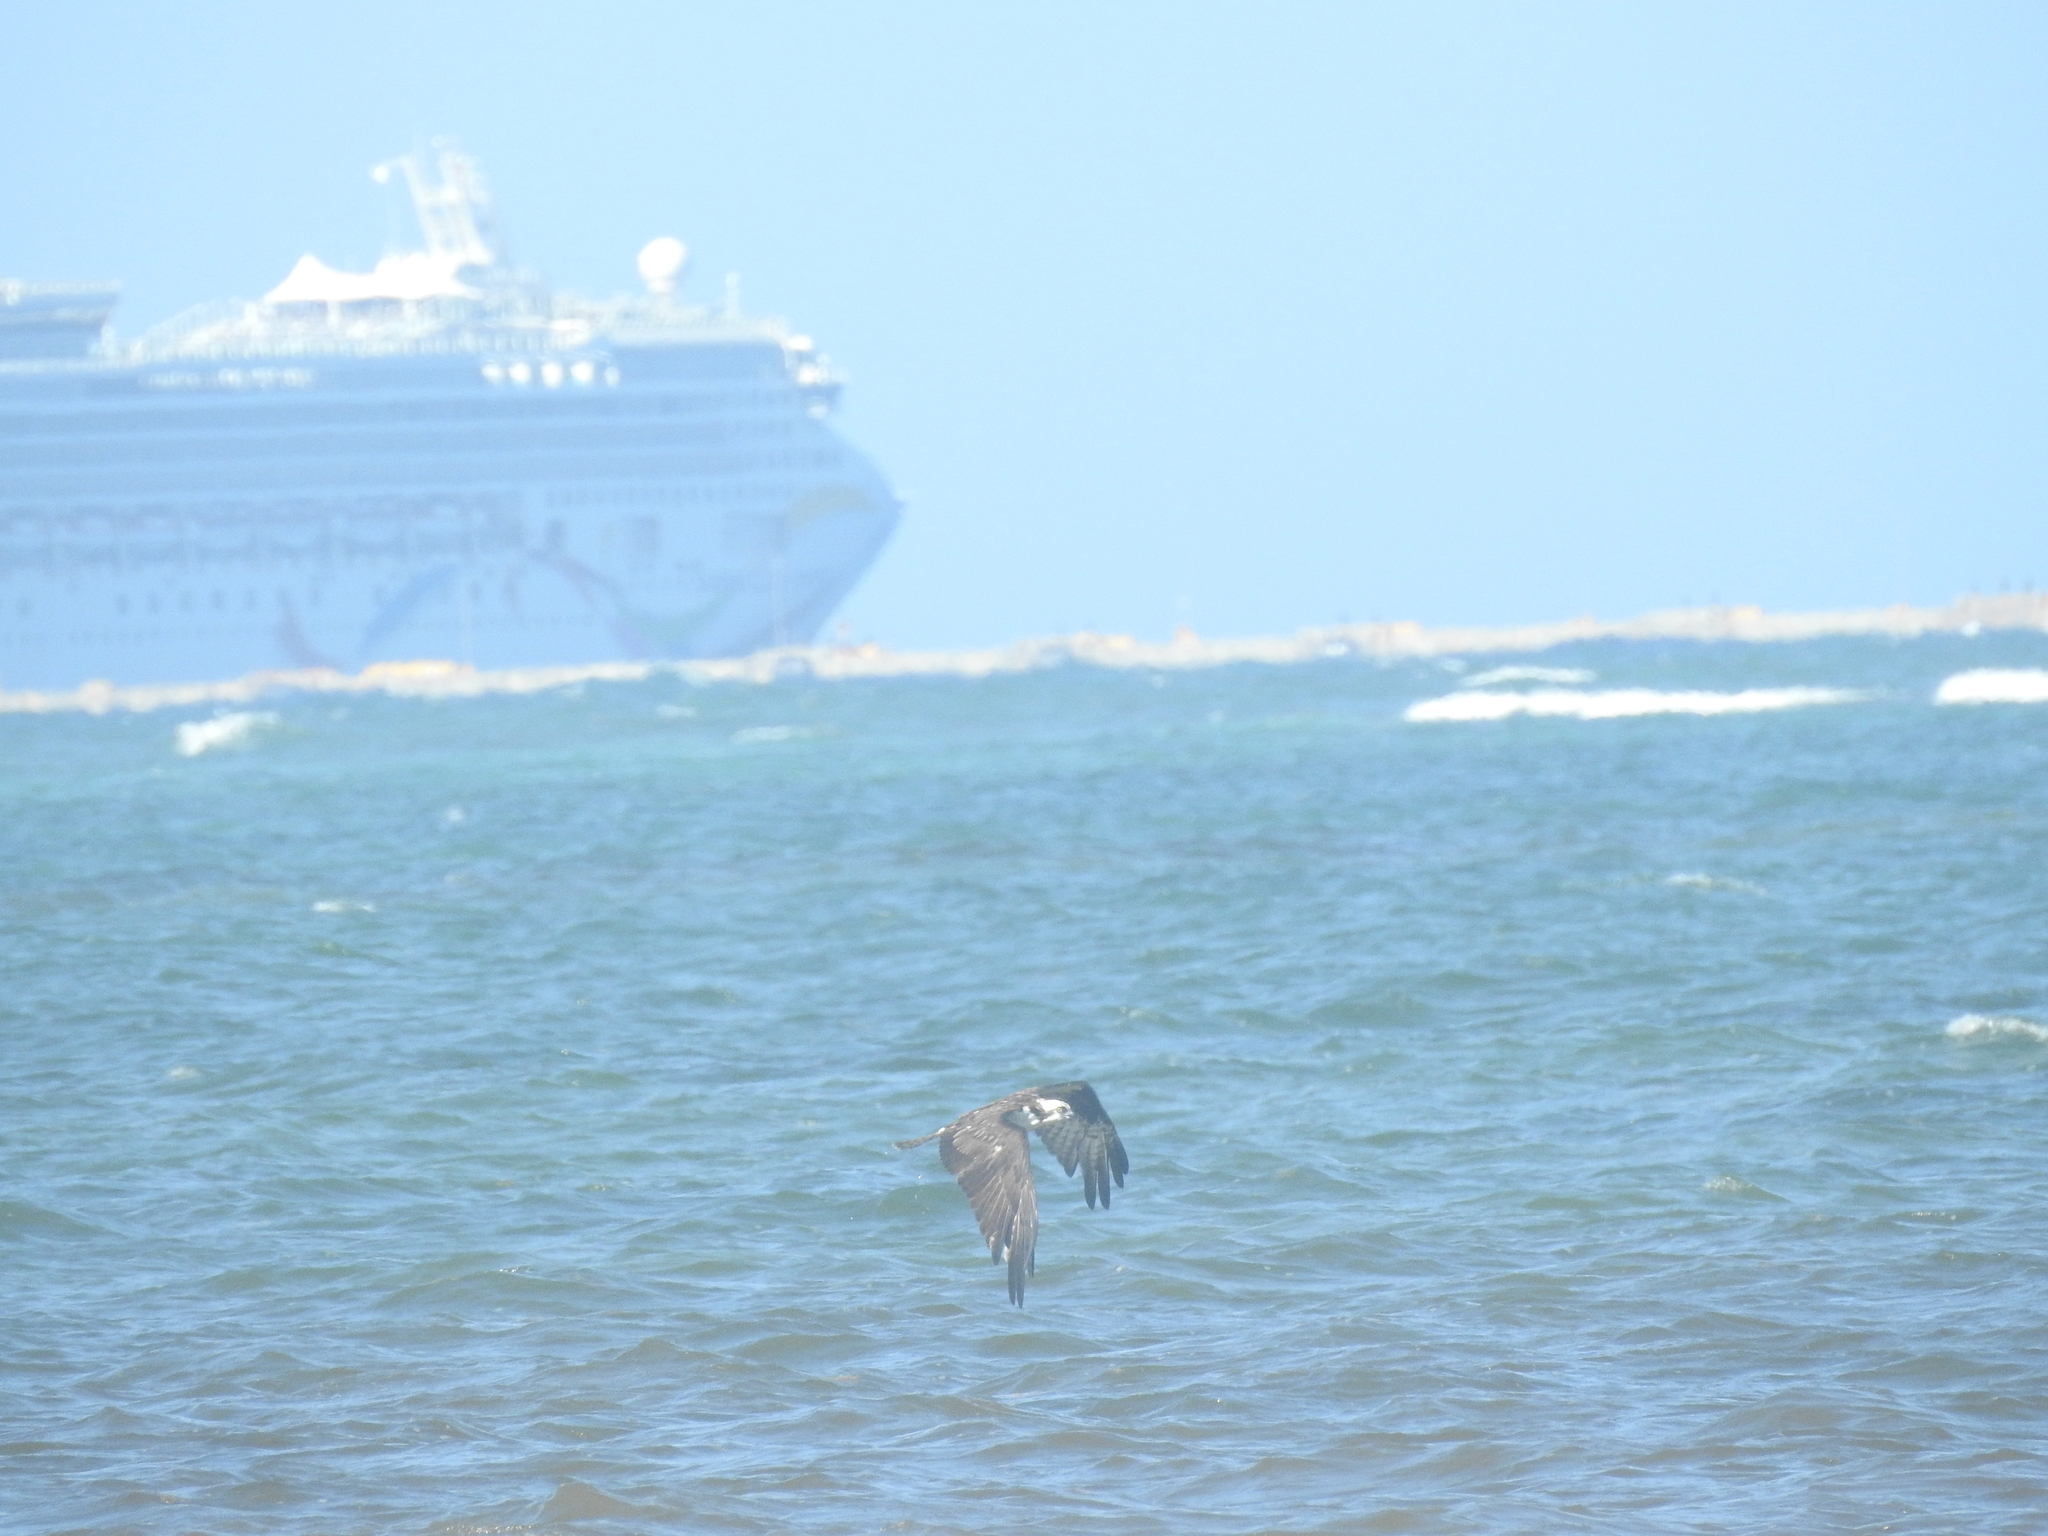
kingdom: Animalia
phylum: Chordata
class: Aves
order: Accipitriformes
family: Pandionidae
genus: Pandion
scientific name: Pandion haliaetus
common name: Osprey
